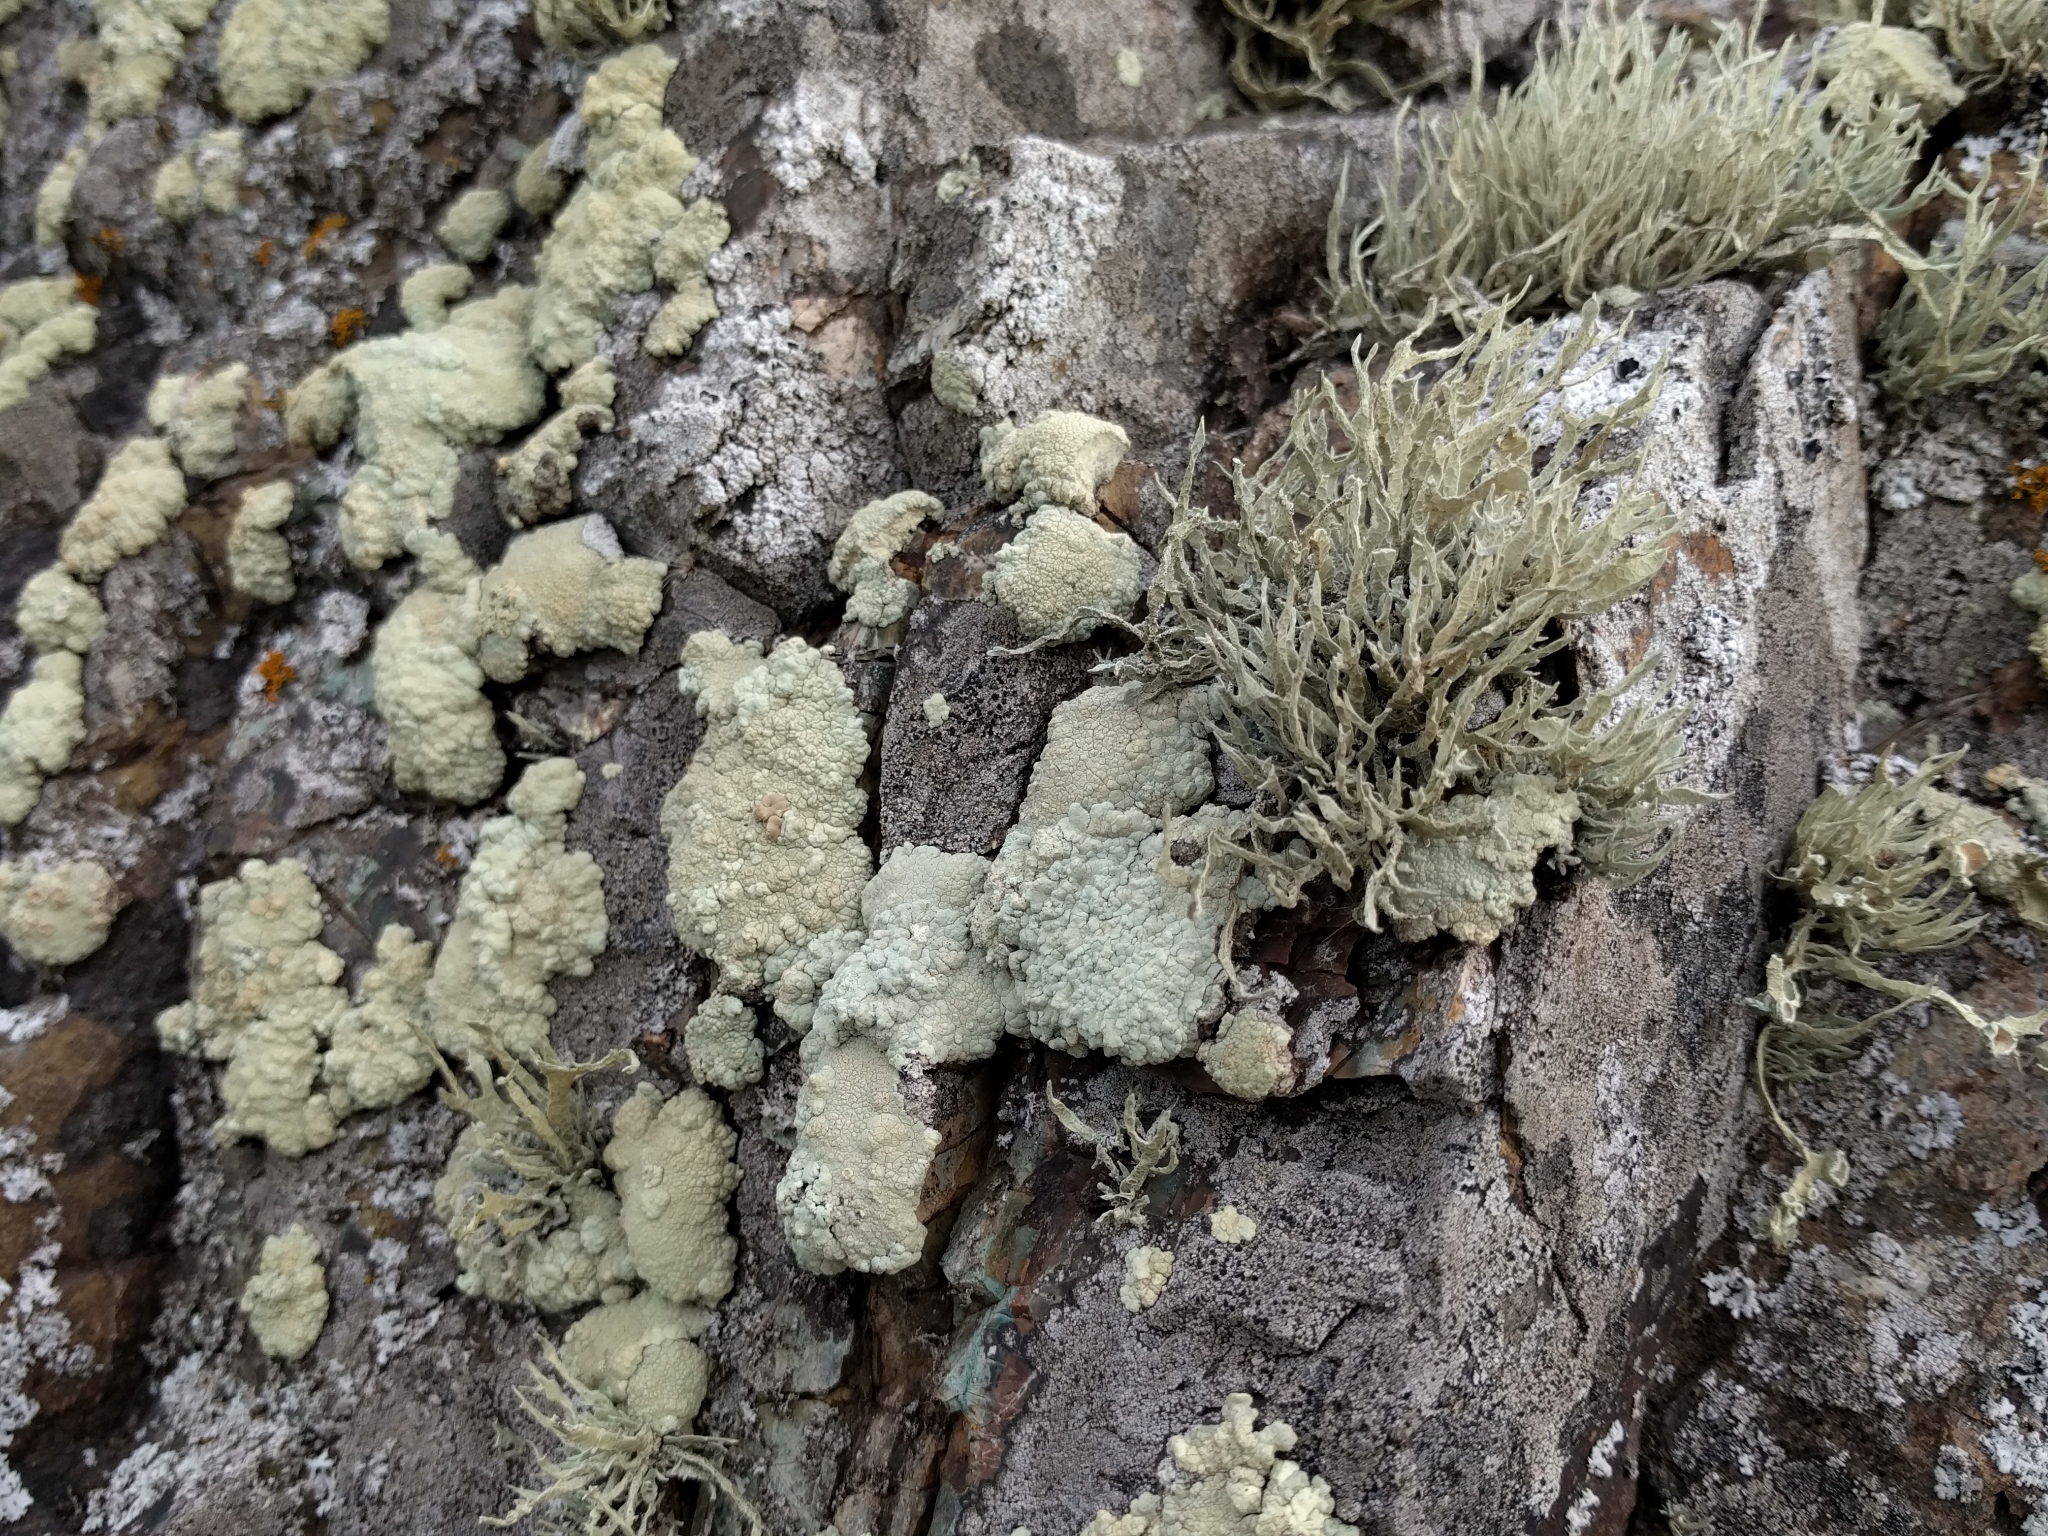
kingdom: Fungi
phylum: Ascomycota
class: Lecanoromycetes
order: Lecanorales
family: Lecanoraceae
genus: Protoparmeliopsis
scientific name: Protoparmeliopsis pinguis
